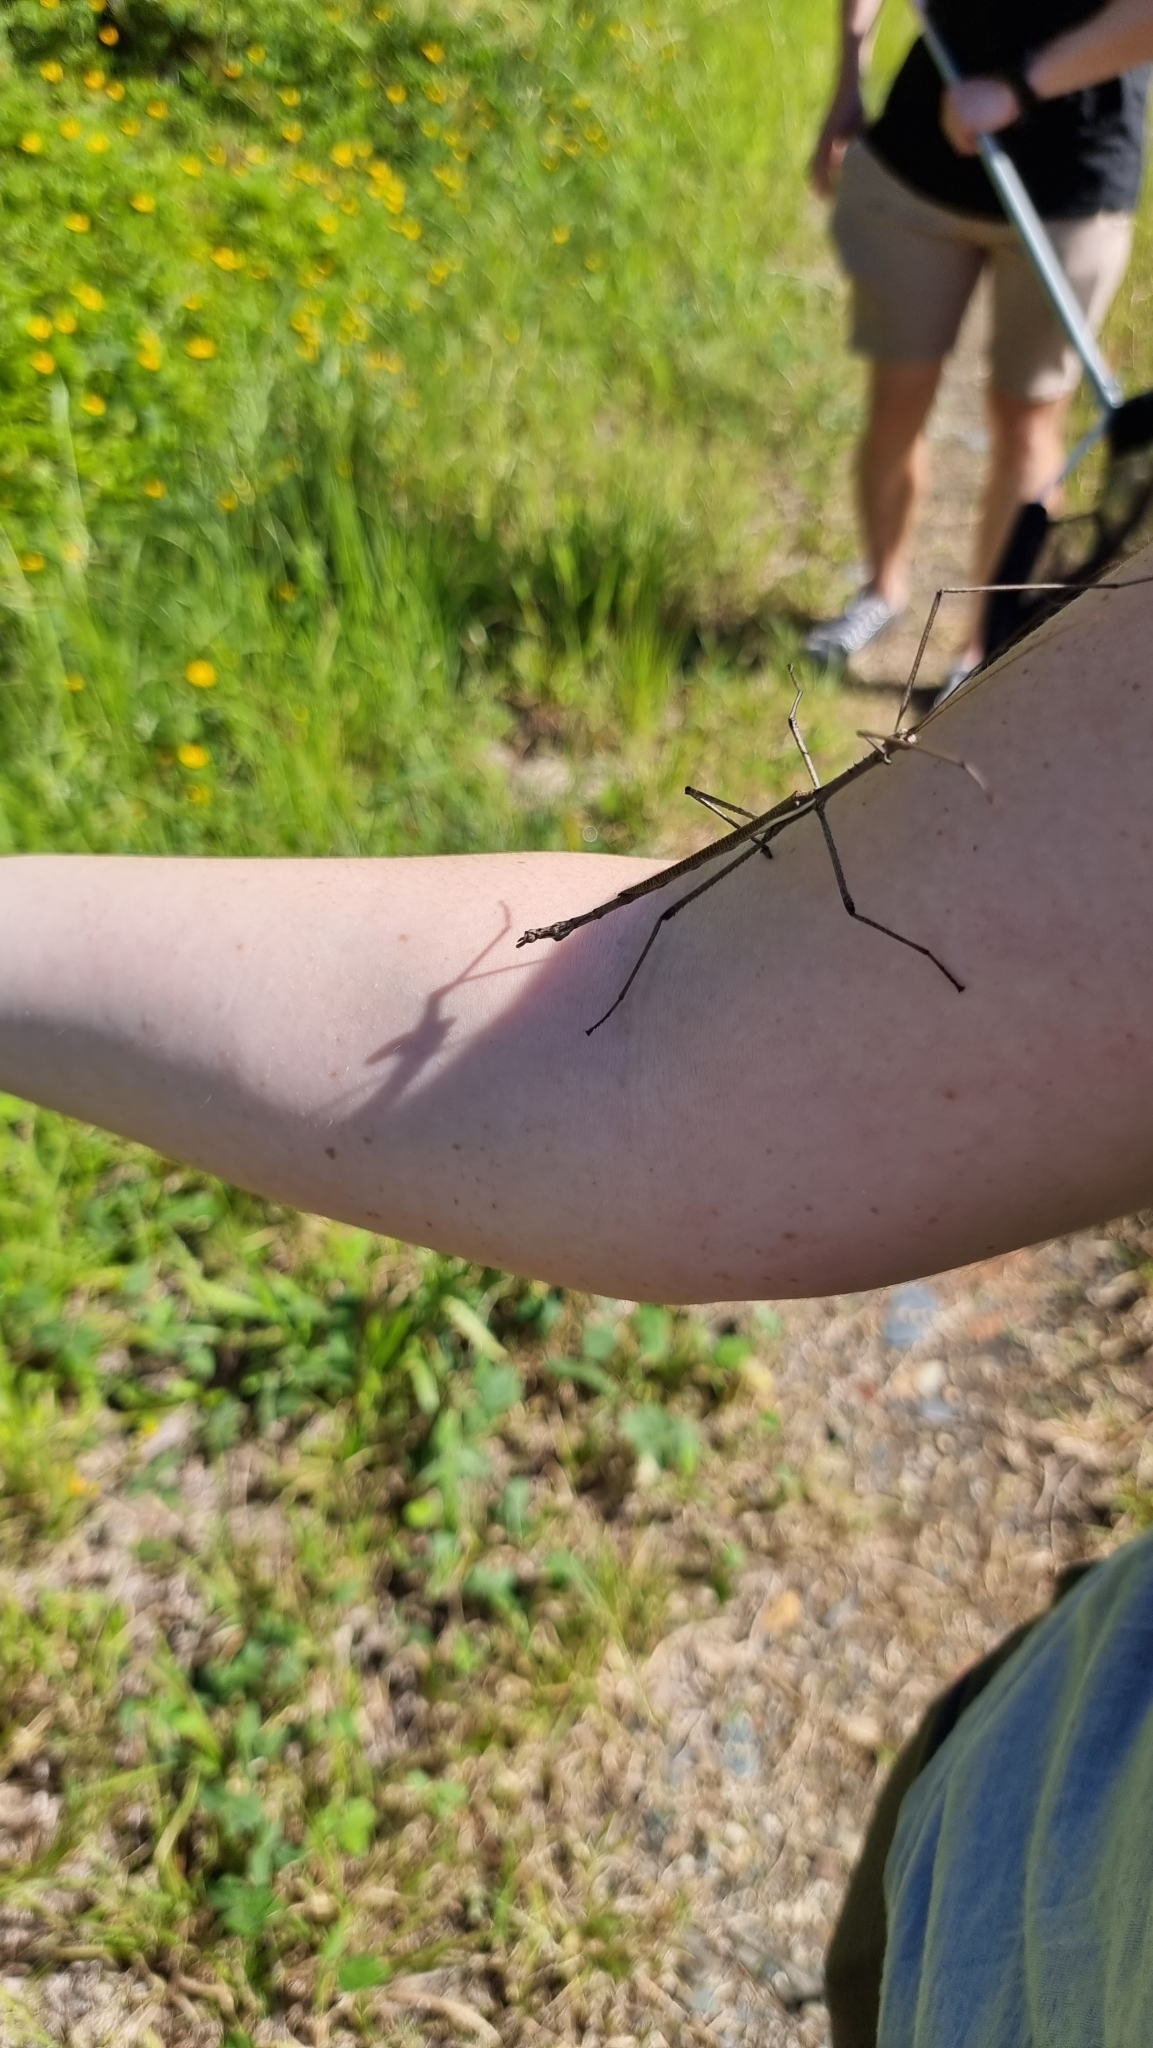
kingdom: Animalia
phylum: Arthropoda
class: Insecta
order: Phasmida
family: Phasmatidae
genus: Anchiale
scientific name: Anchiale austrotessulata
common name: Tessellated stick-insect
